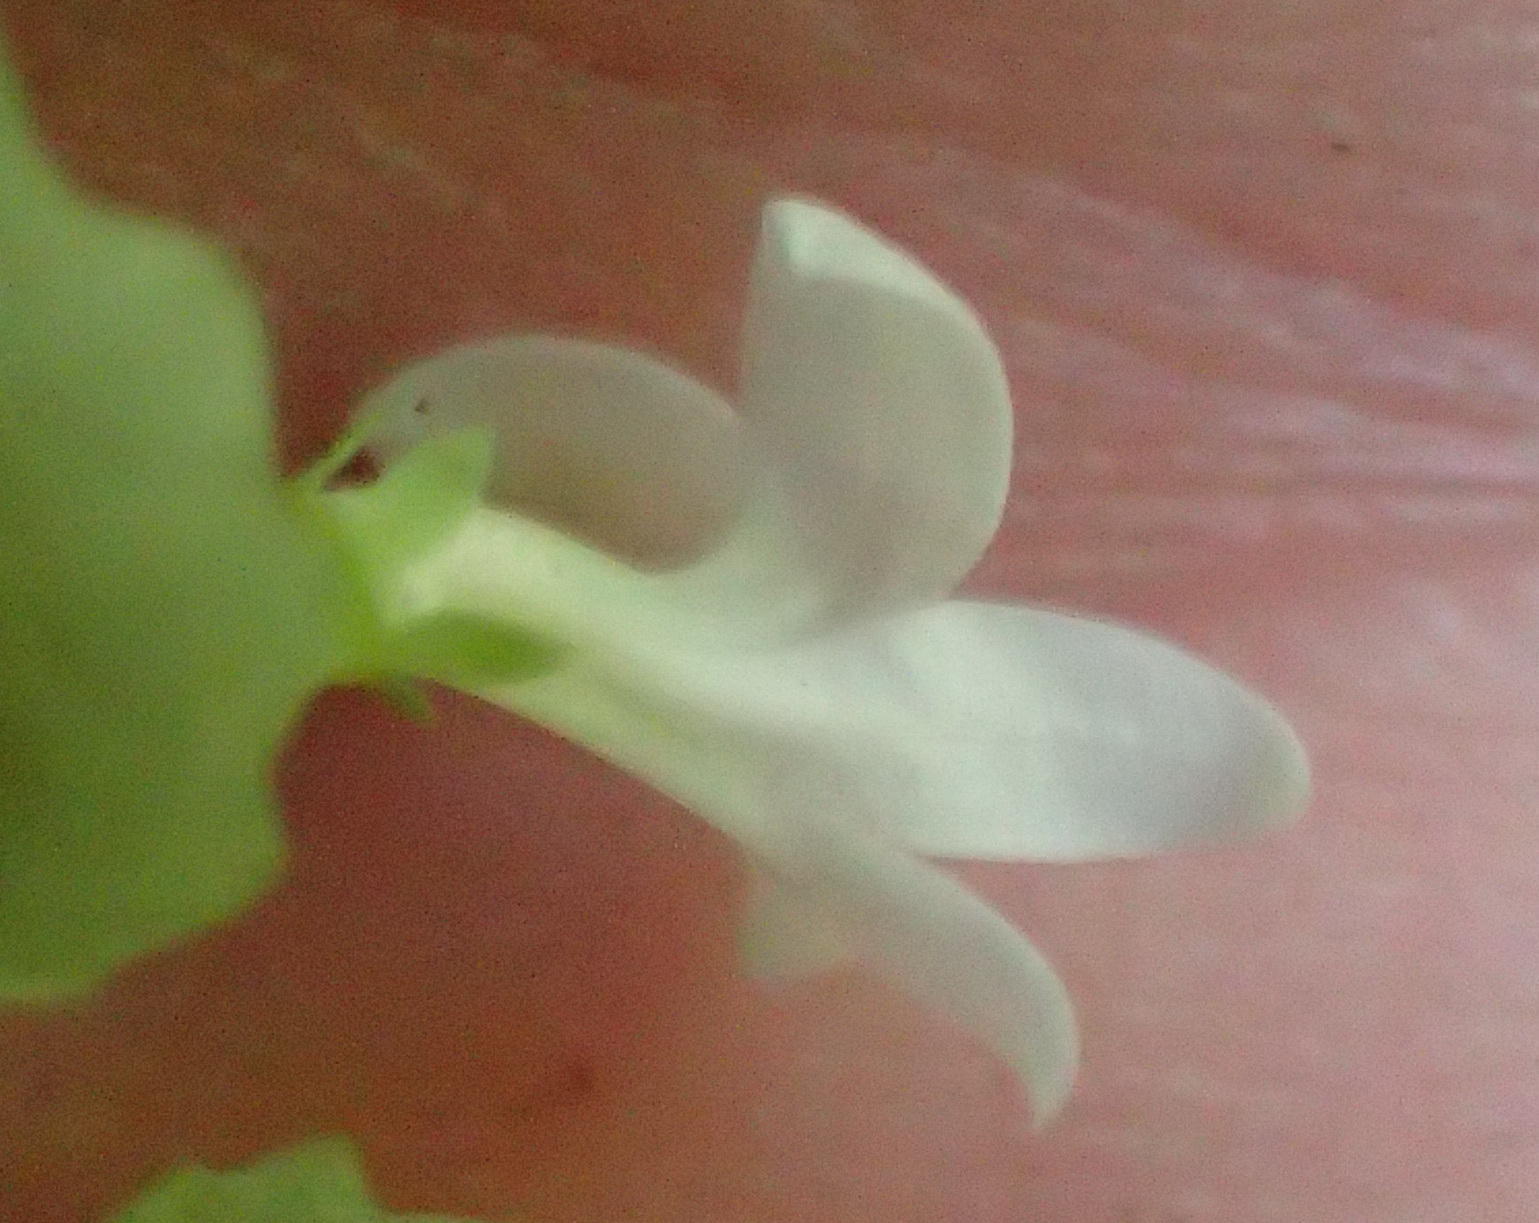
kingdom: Plantae
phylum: Tracheophyta
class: Magnoliopsida
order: Asterales
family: Campanulaceae
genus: Wimmerella
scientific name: Wimmerella pygmaea
